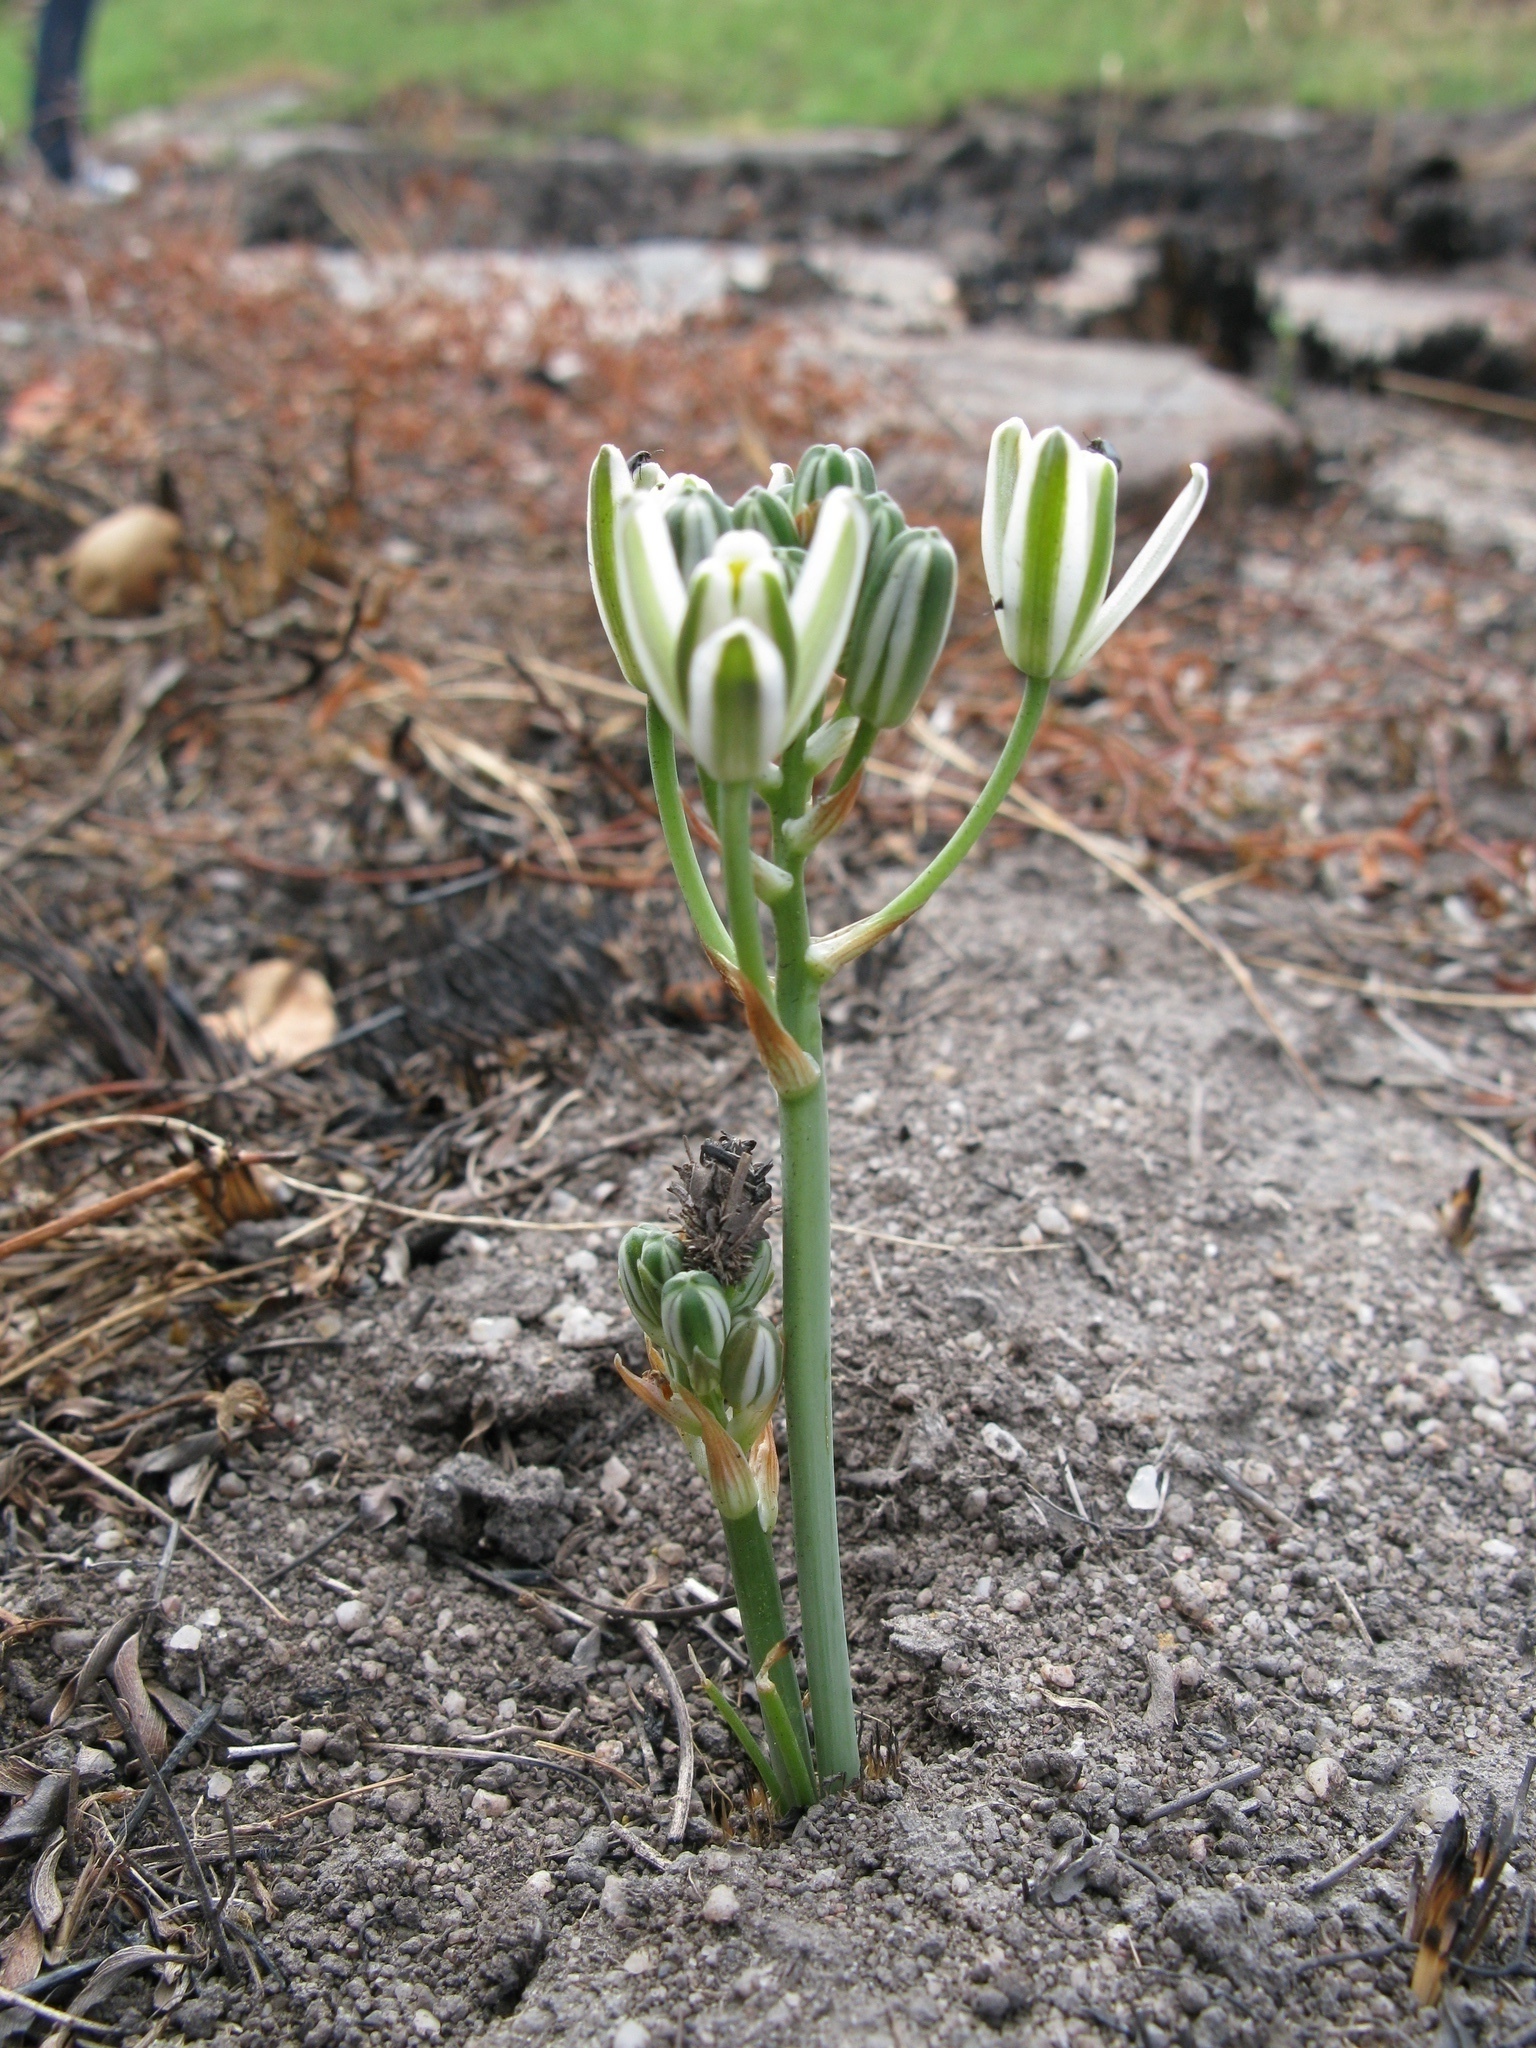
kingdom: Plantae
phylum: Tracheophyta
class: Liliopsida
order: Asparagales
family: Asparagaceae
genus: Albuca
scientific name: Albuca setosa
